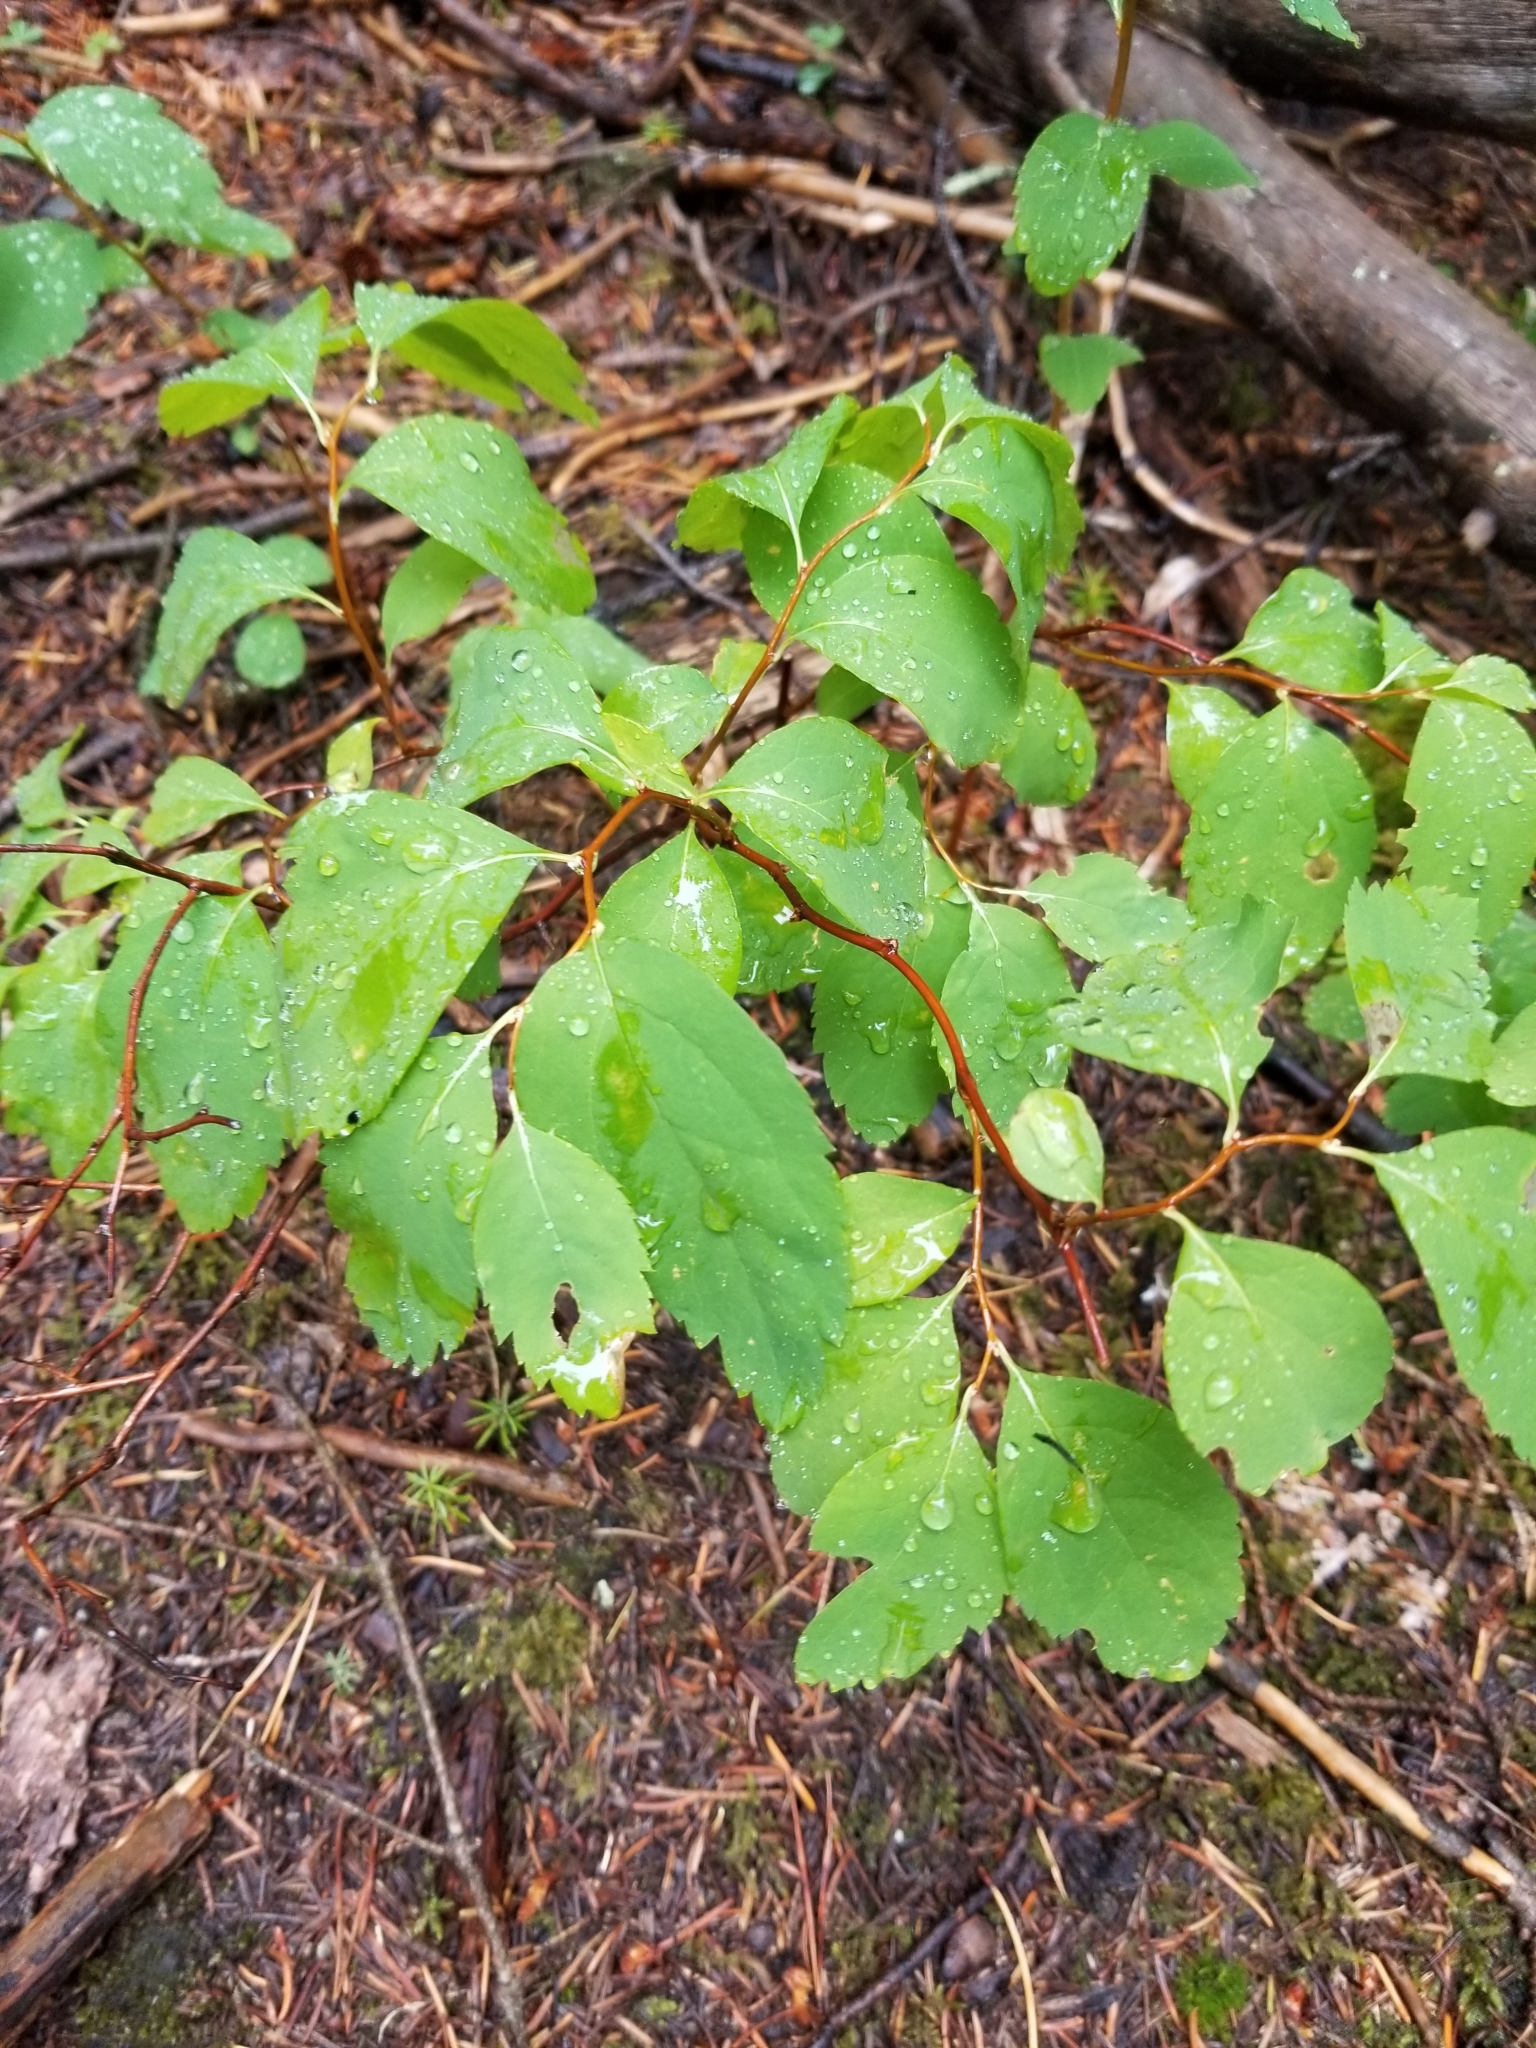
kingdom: Plantae
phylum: Tracheophyta
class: Magnoliopsida
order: Rosales
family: Rosaceae
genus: Spiraea
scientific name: Spiraea lucida
